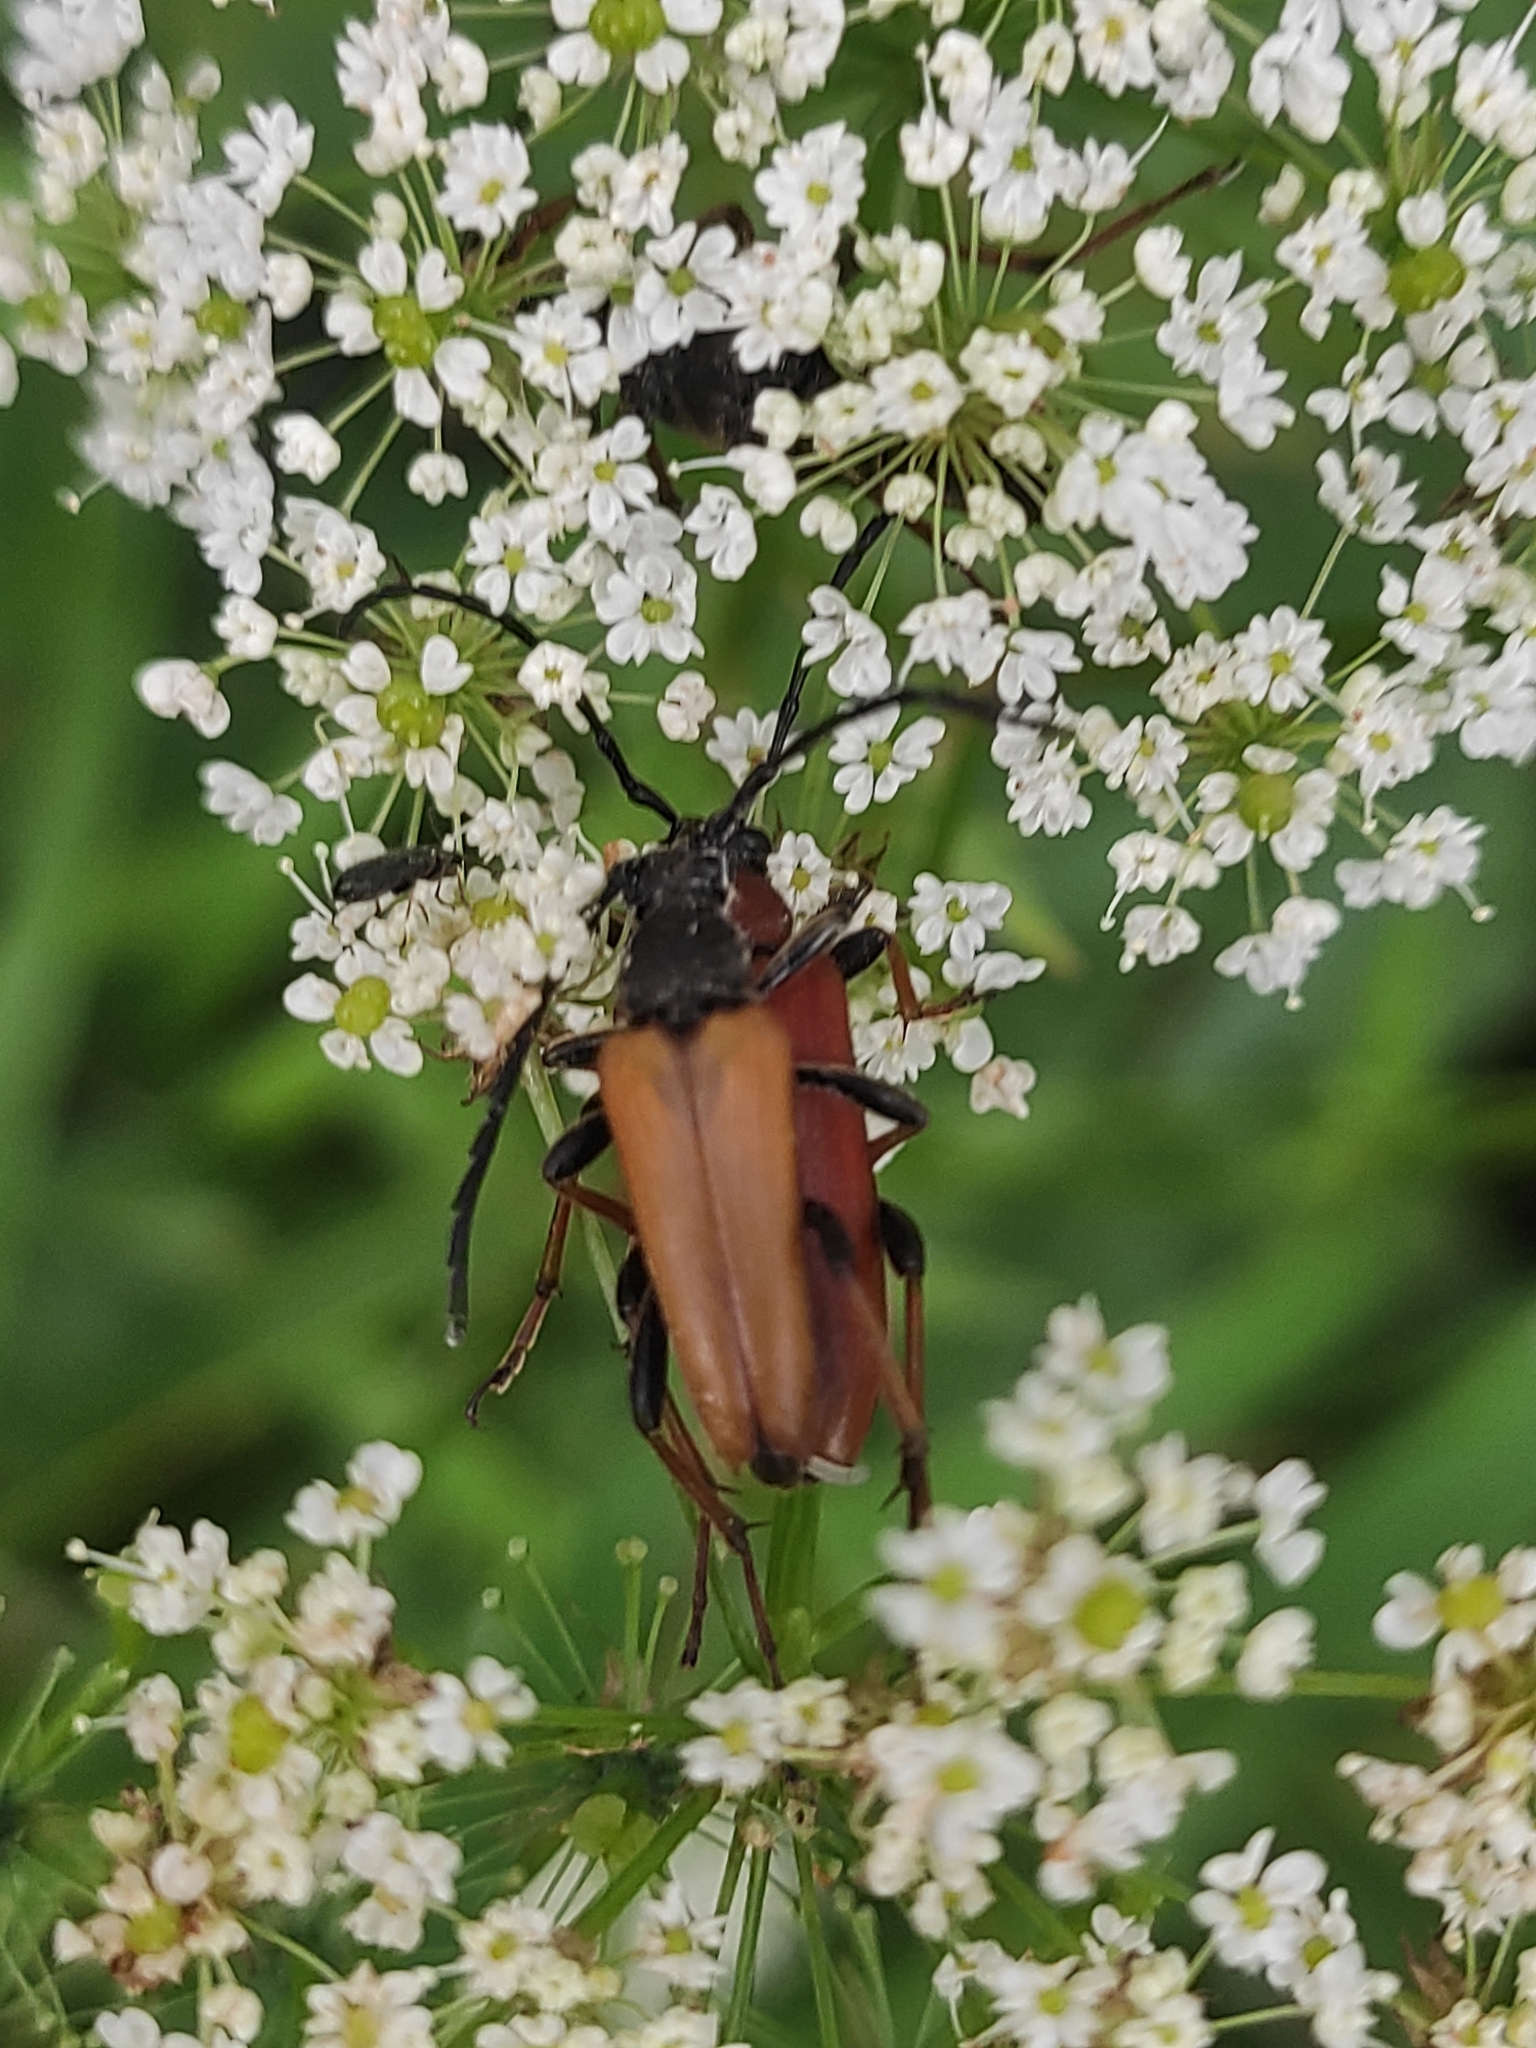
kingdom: Animalia
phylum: Arthropoda
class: Insecta
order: Coleoptera
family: Cerambycidae
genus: Stictoleptura
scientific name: Stictoleptura rubra
